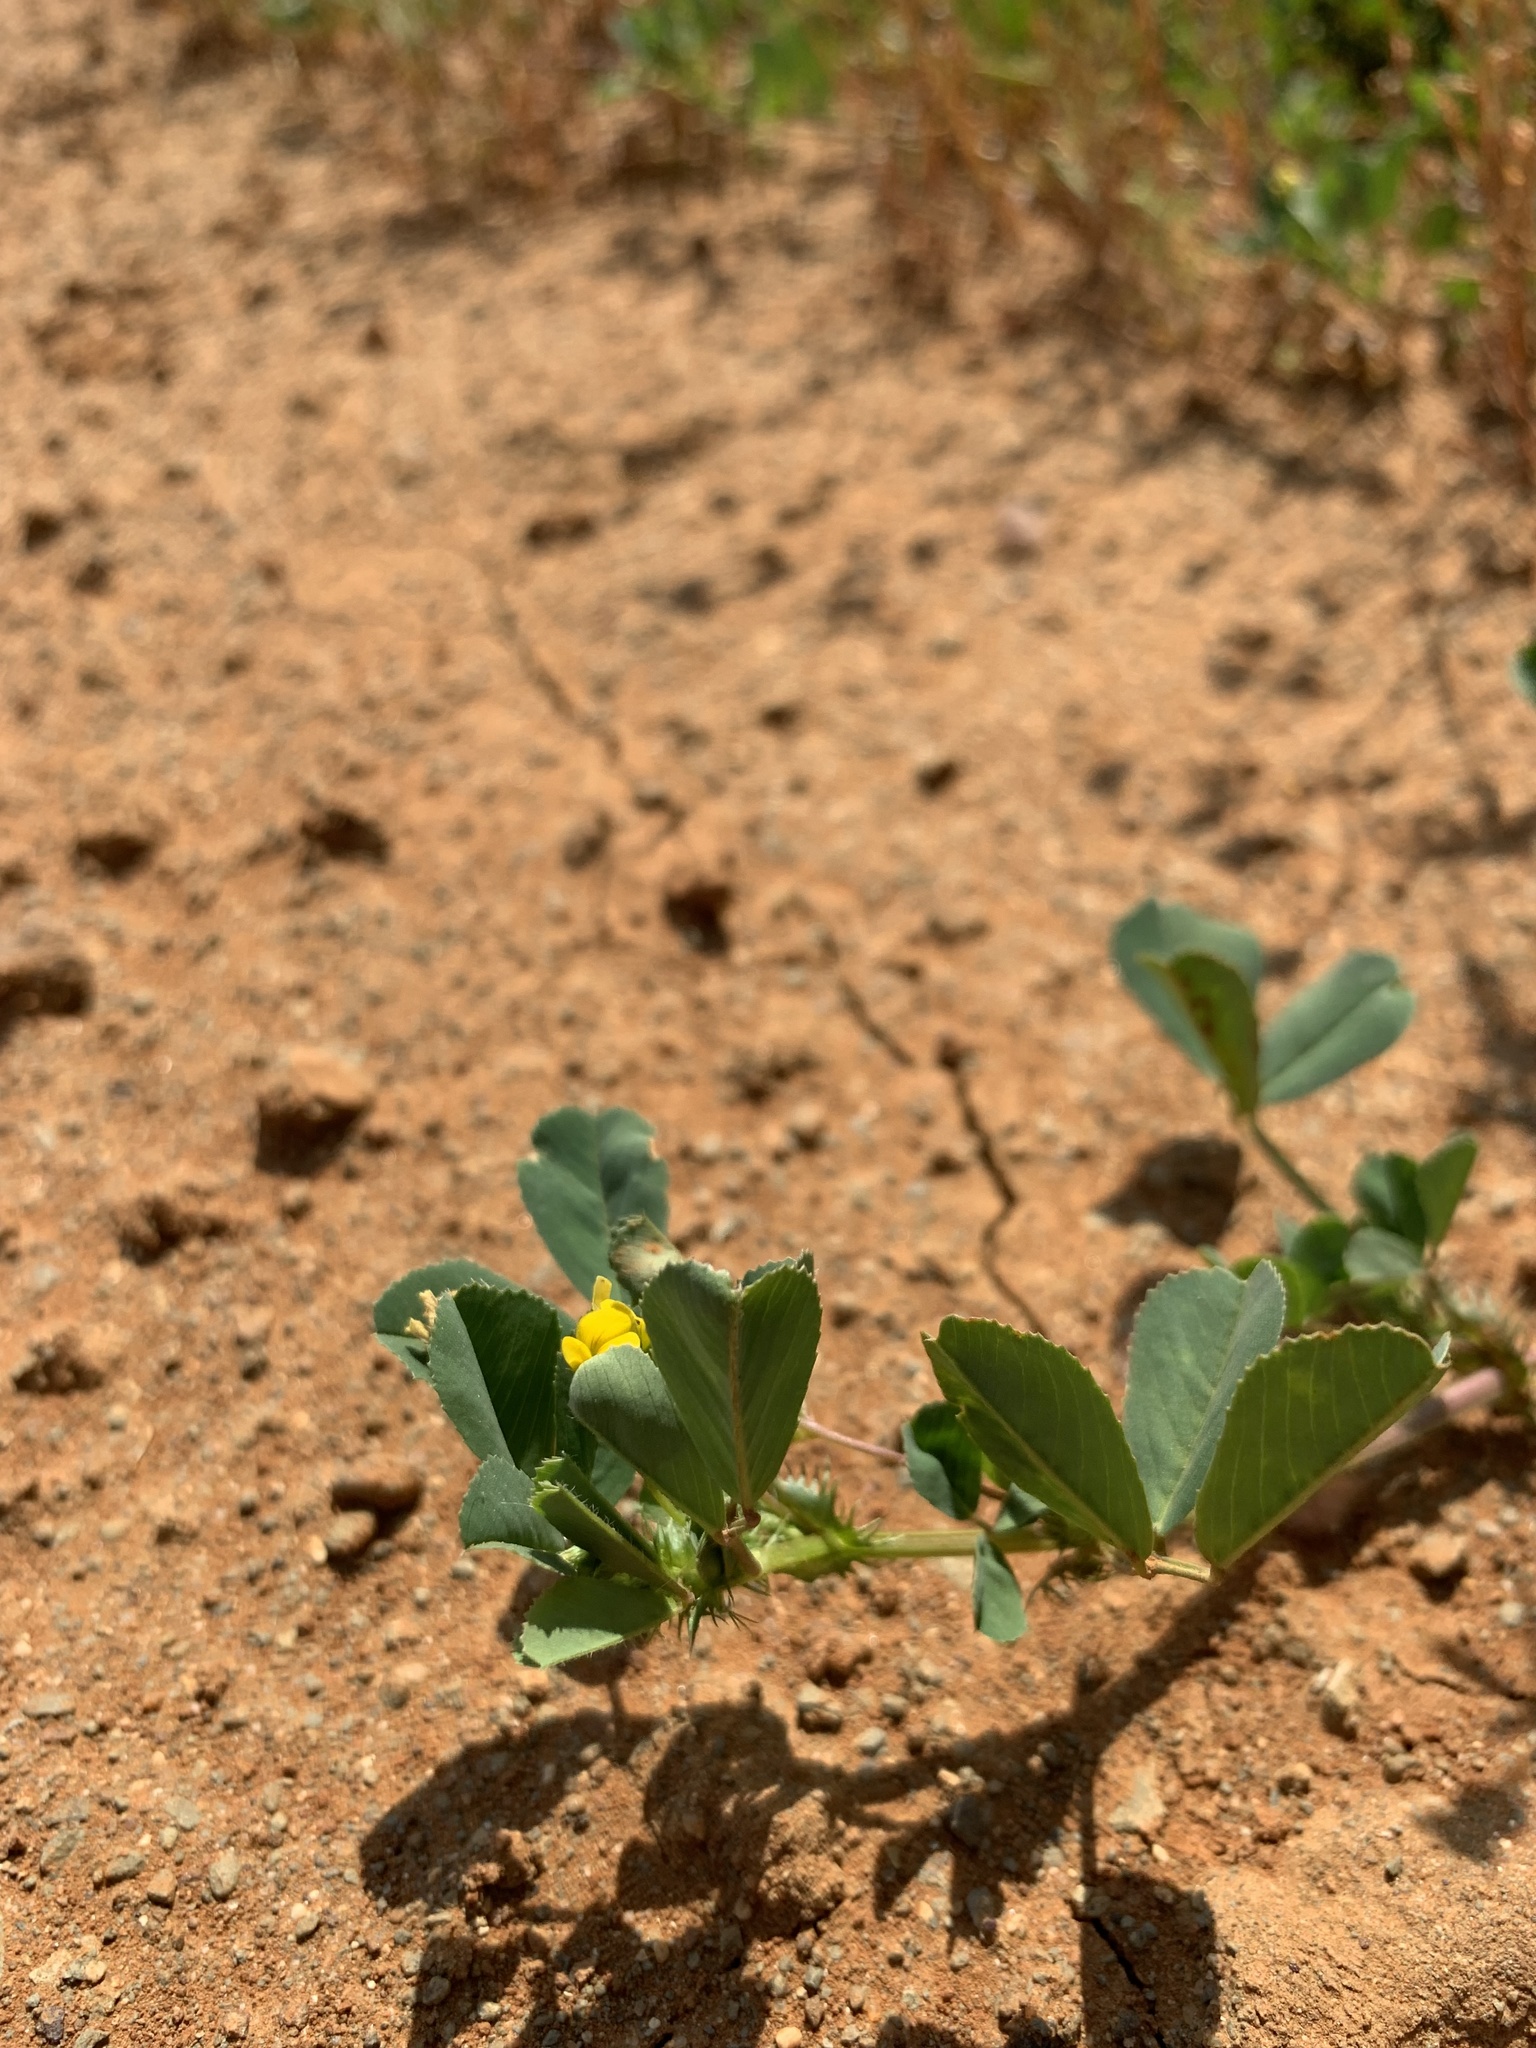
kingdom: Plantae
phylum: Tracheophyta
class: Magnoliopsida
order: Fabales
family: Fabaceae
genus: Medicago
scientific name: Medicago polymorpha
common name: Burclover
